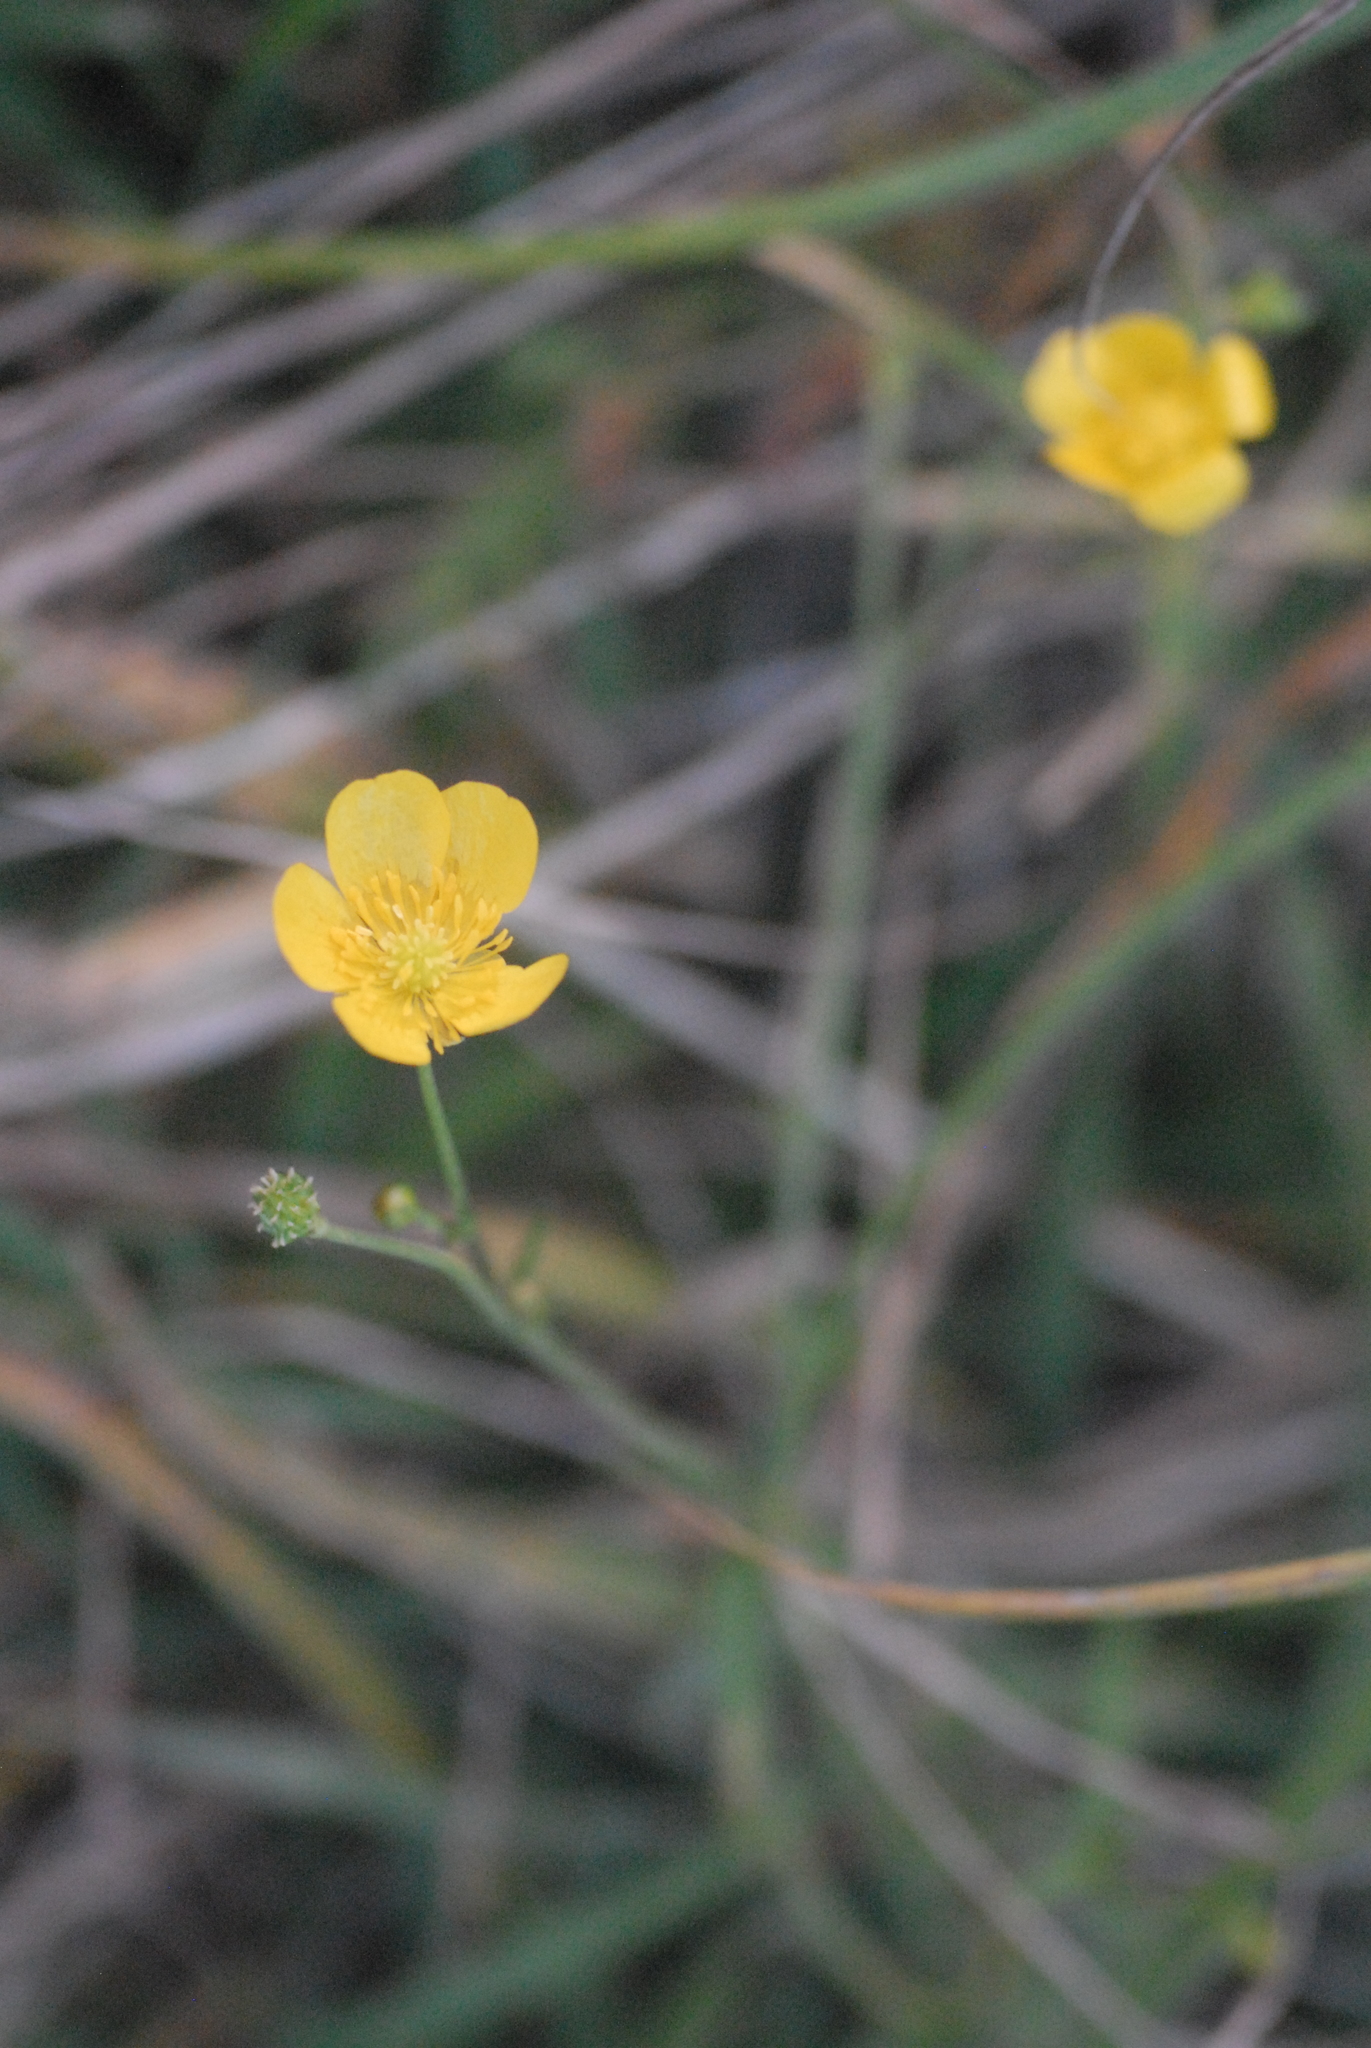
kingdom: Plantae
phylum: Tracheophyta
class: Magnoliopsida
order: Ranunculales
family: Ranunculaceae
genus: Ranunculus
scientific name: Ranunculus acris
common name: Meadow buttercup
